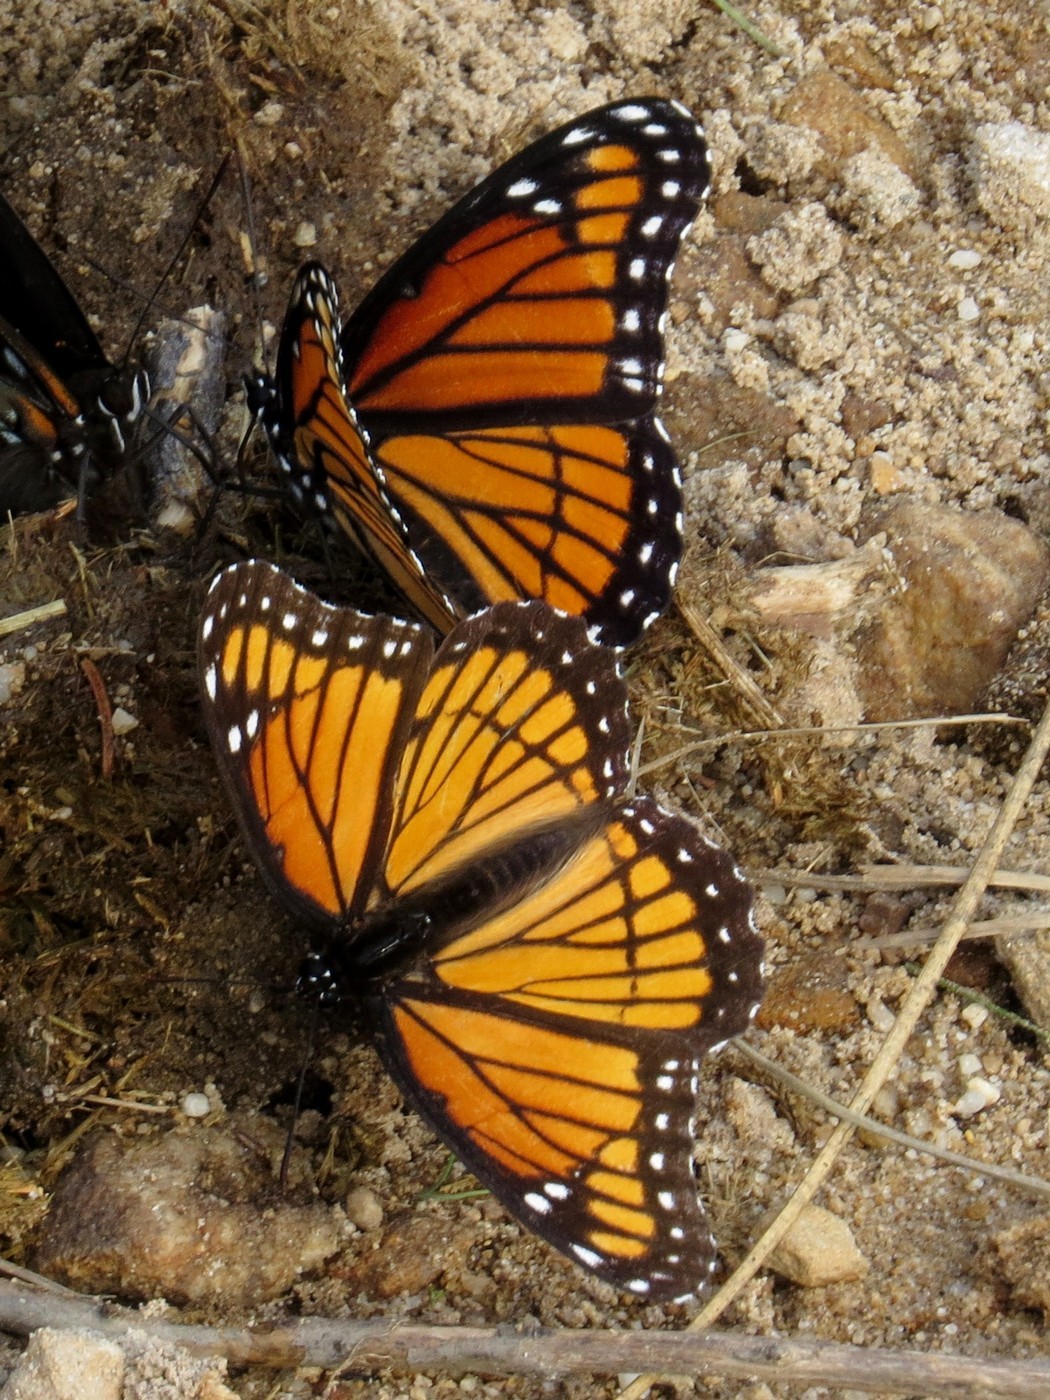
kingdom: Animalia
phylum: Arthropoda
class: Insecta
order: Lepidoptera
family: Nymphalidae
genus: Limenitis
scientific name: Limenitis archippus
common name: Viceroy
